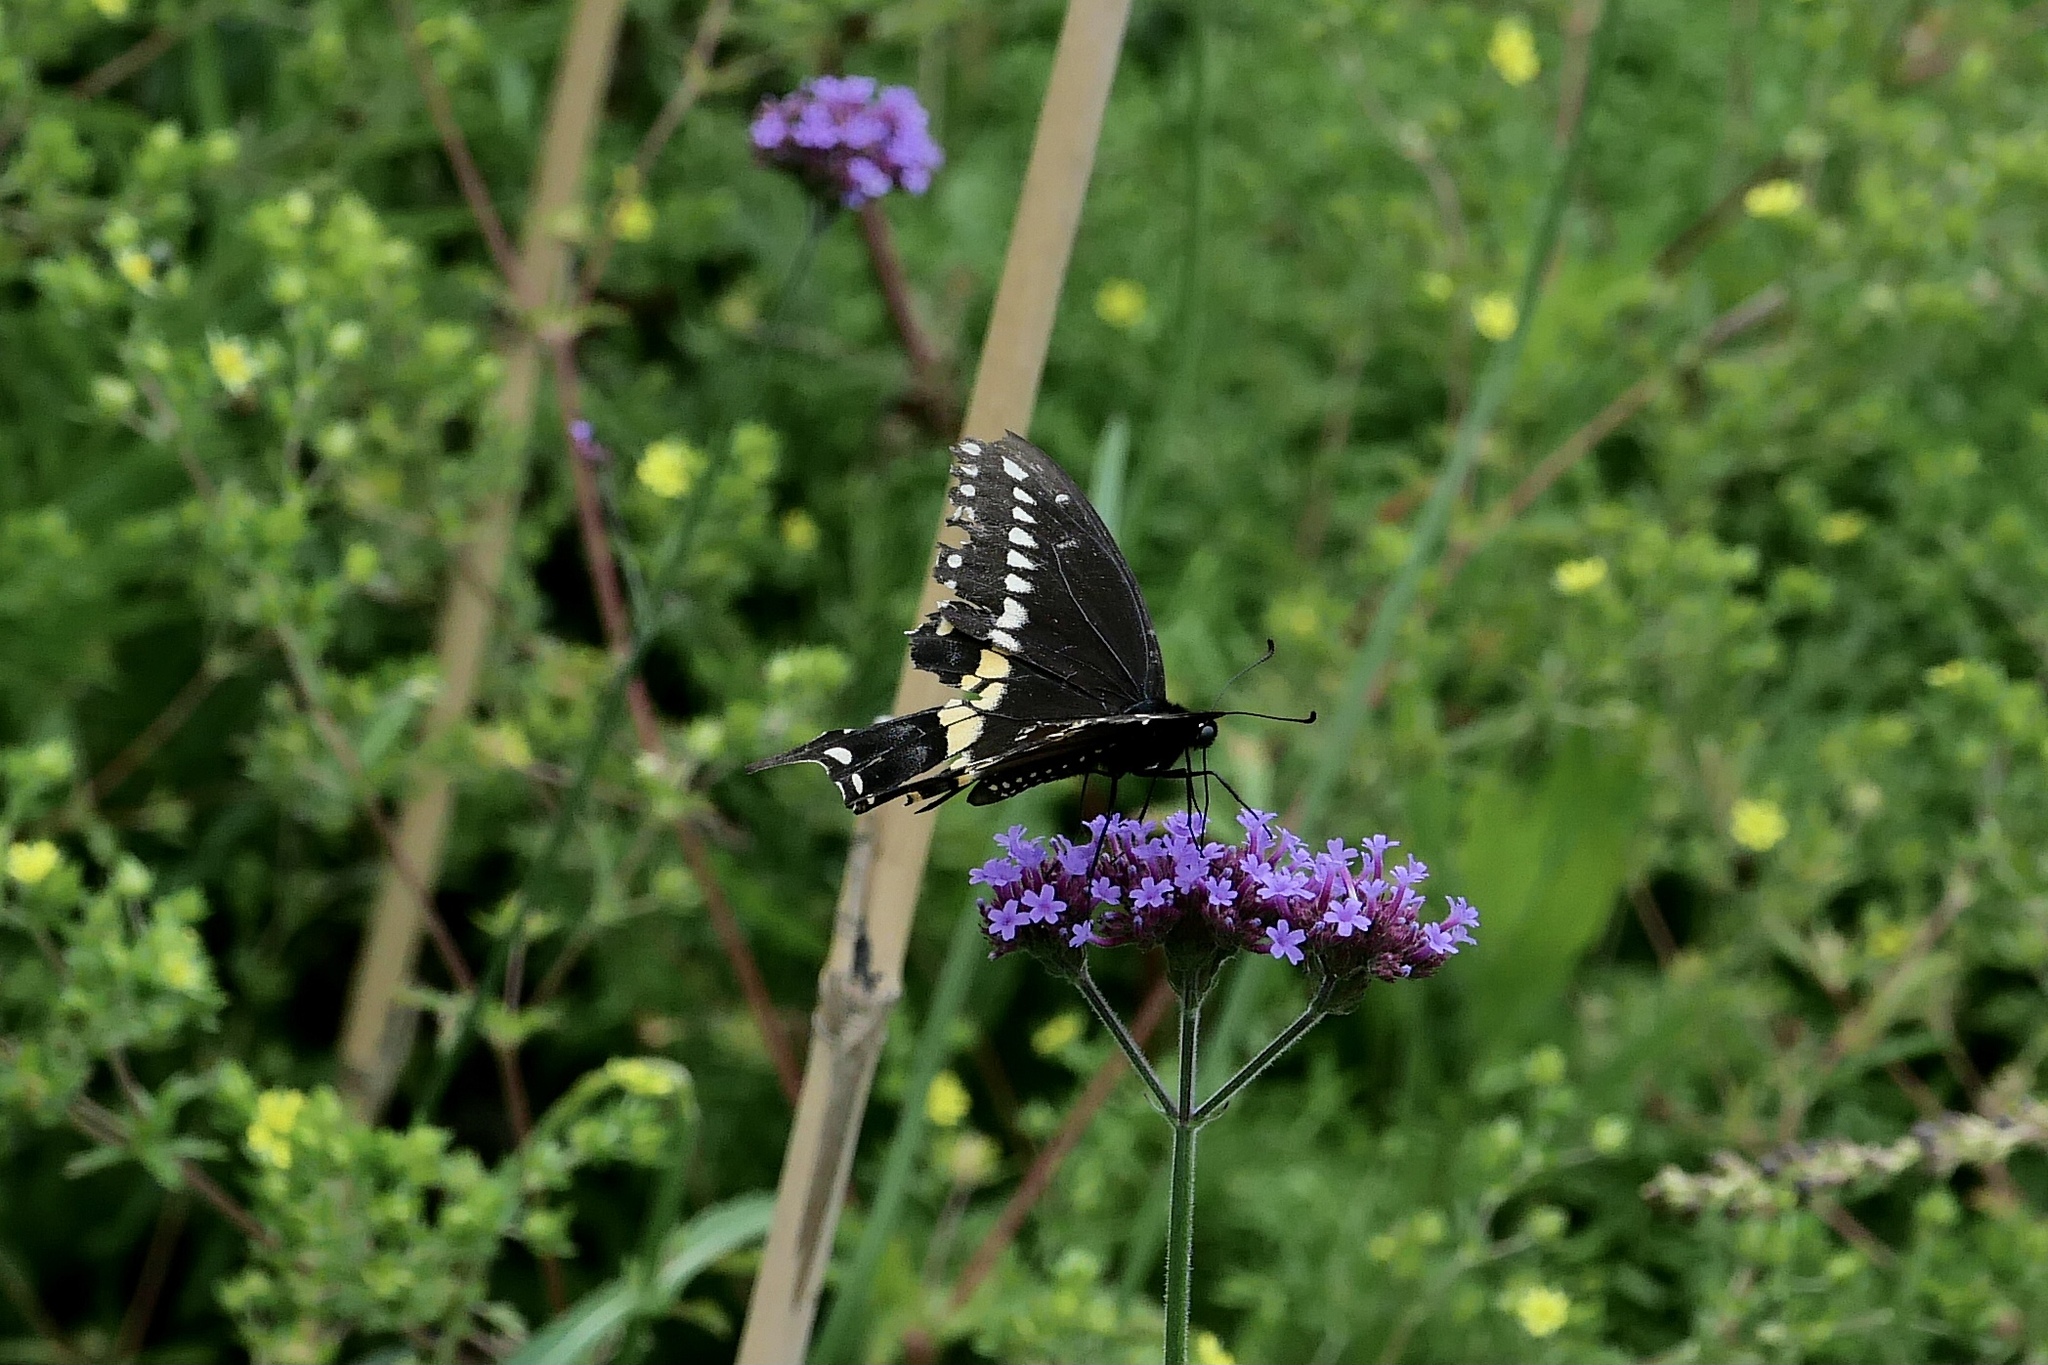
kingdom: Animalia
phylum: Arthropoda
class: Insecta
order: Lepidoptera
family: Papilionidae
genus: Papilio
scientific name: Papilio polyxenes
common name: Black swallowtail
